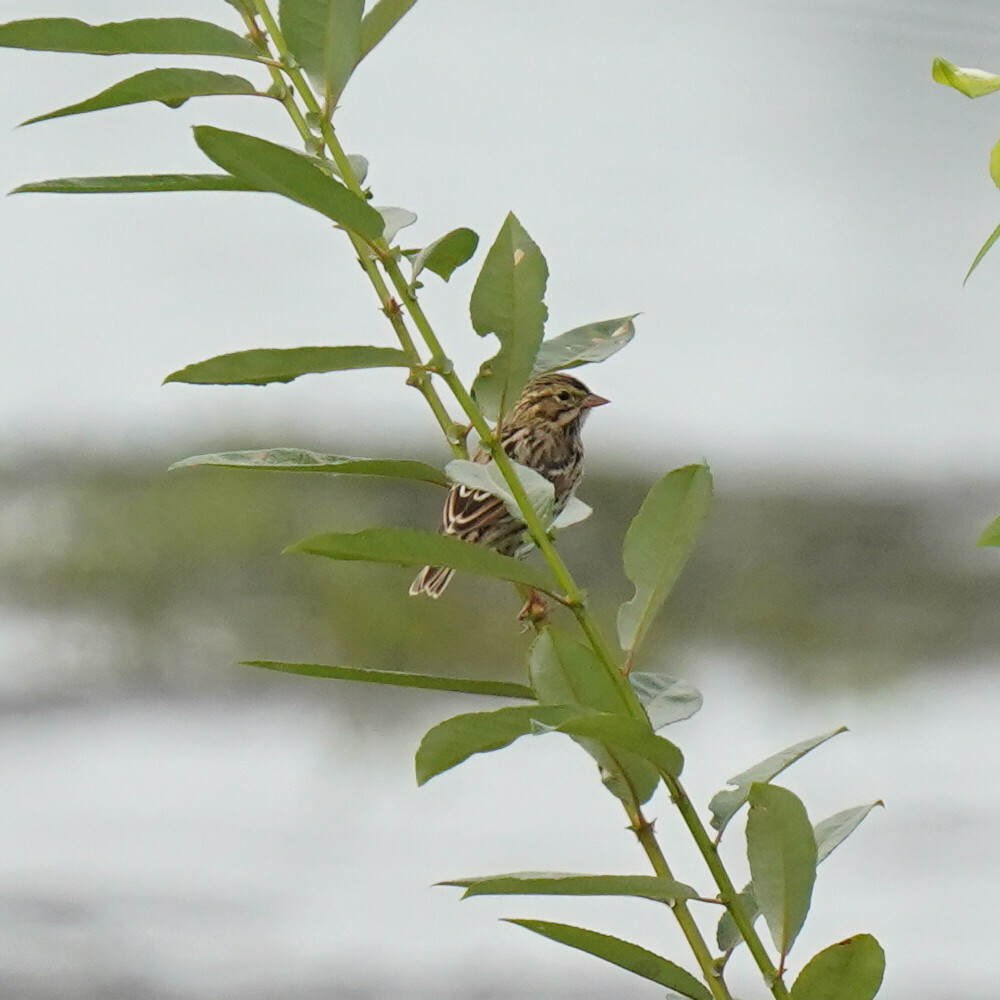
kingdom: Animalia
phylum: Chordata
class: Aves
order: Passeriformes
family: Passerellidae
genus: Passerculus
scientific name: Passerculus sandwichensis
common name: Savannah sparrow
